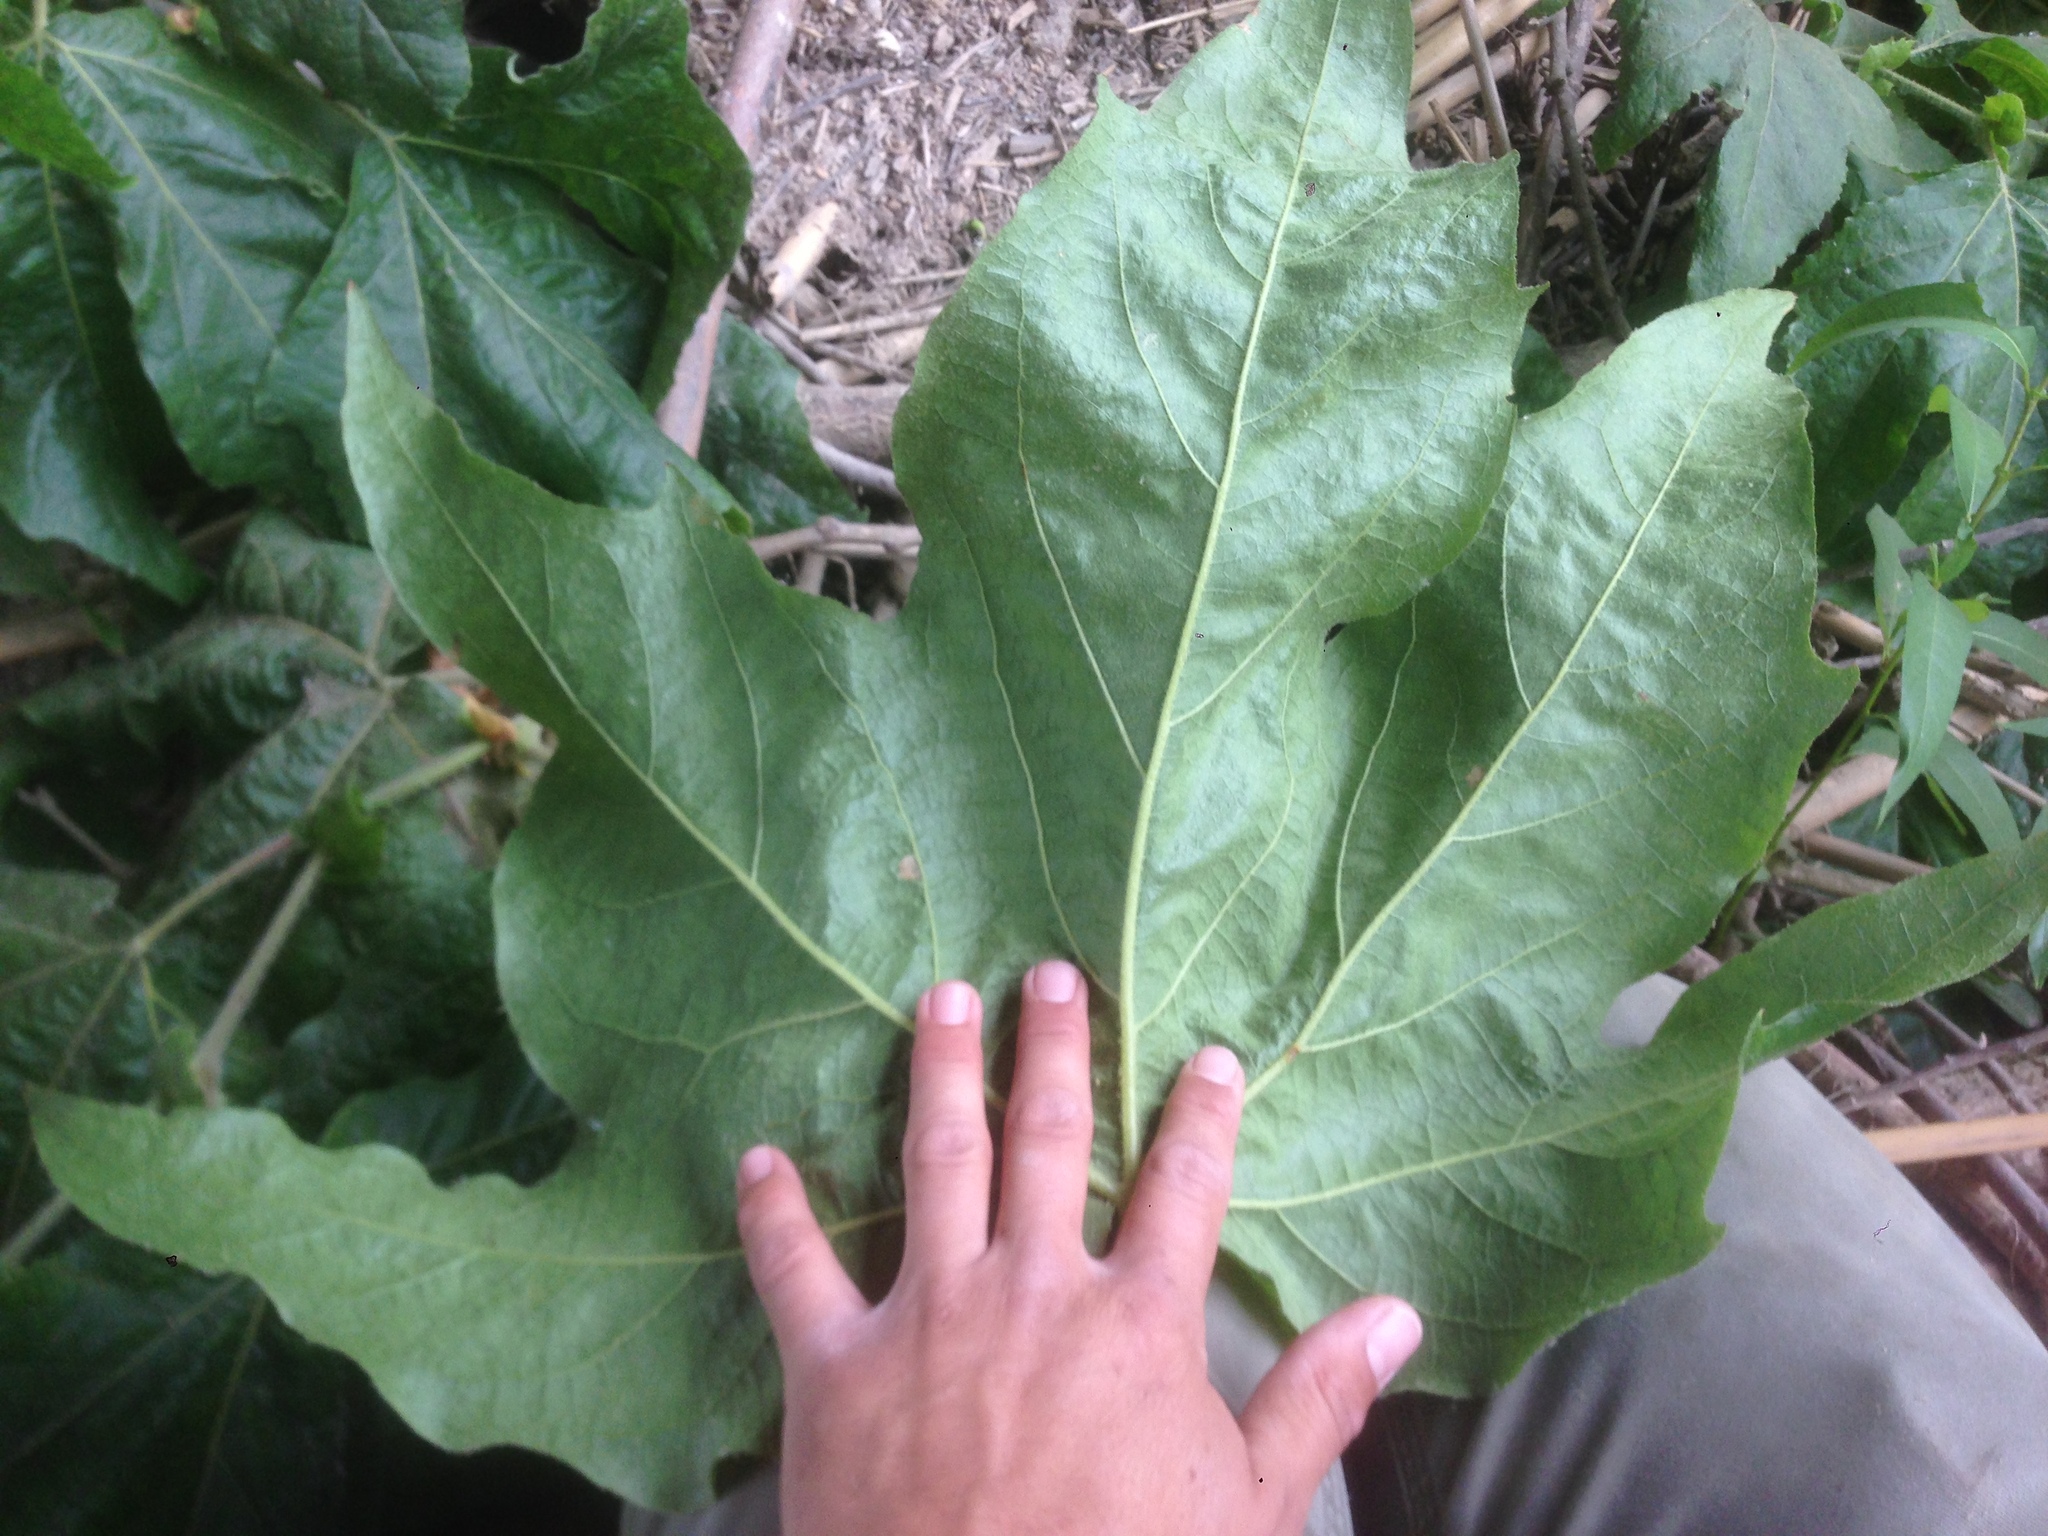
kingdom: Plantae
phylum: Tracheophyta
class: Magnoliopsida
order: Proteales
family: Platanaceae
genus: Platanus
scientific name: Platanus racemosa
